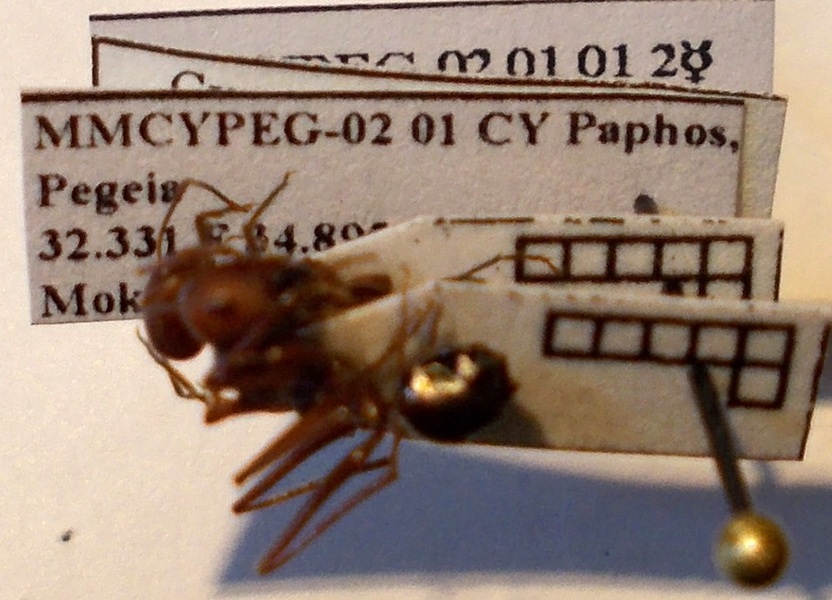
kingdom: Animalia
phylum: Arthropoda
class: Insecta
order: Hymenoptera
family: Formicidae
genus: Cataglyphis
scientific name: Cataglyphis aphrodite
